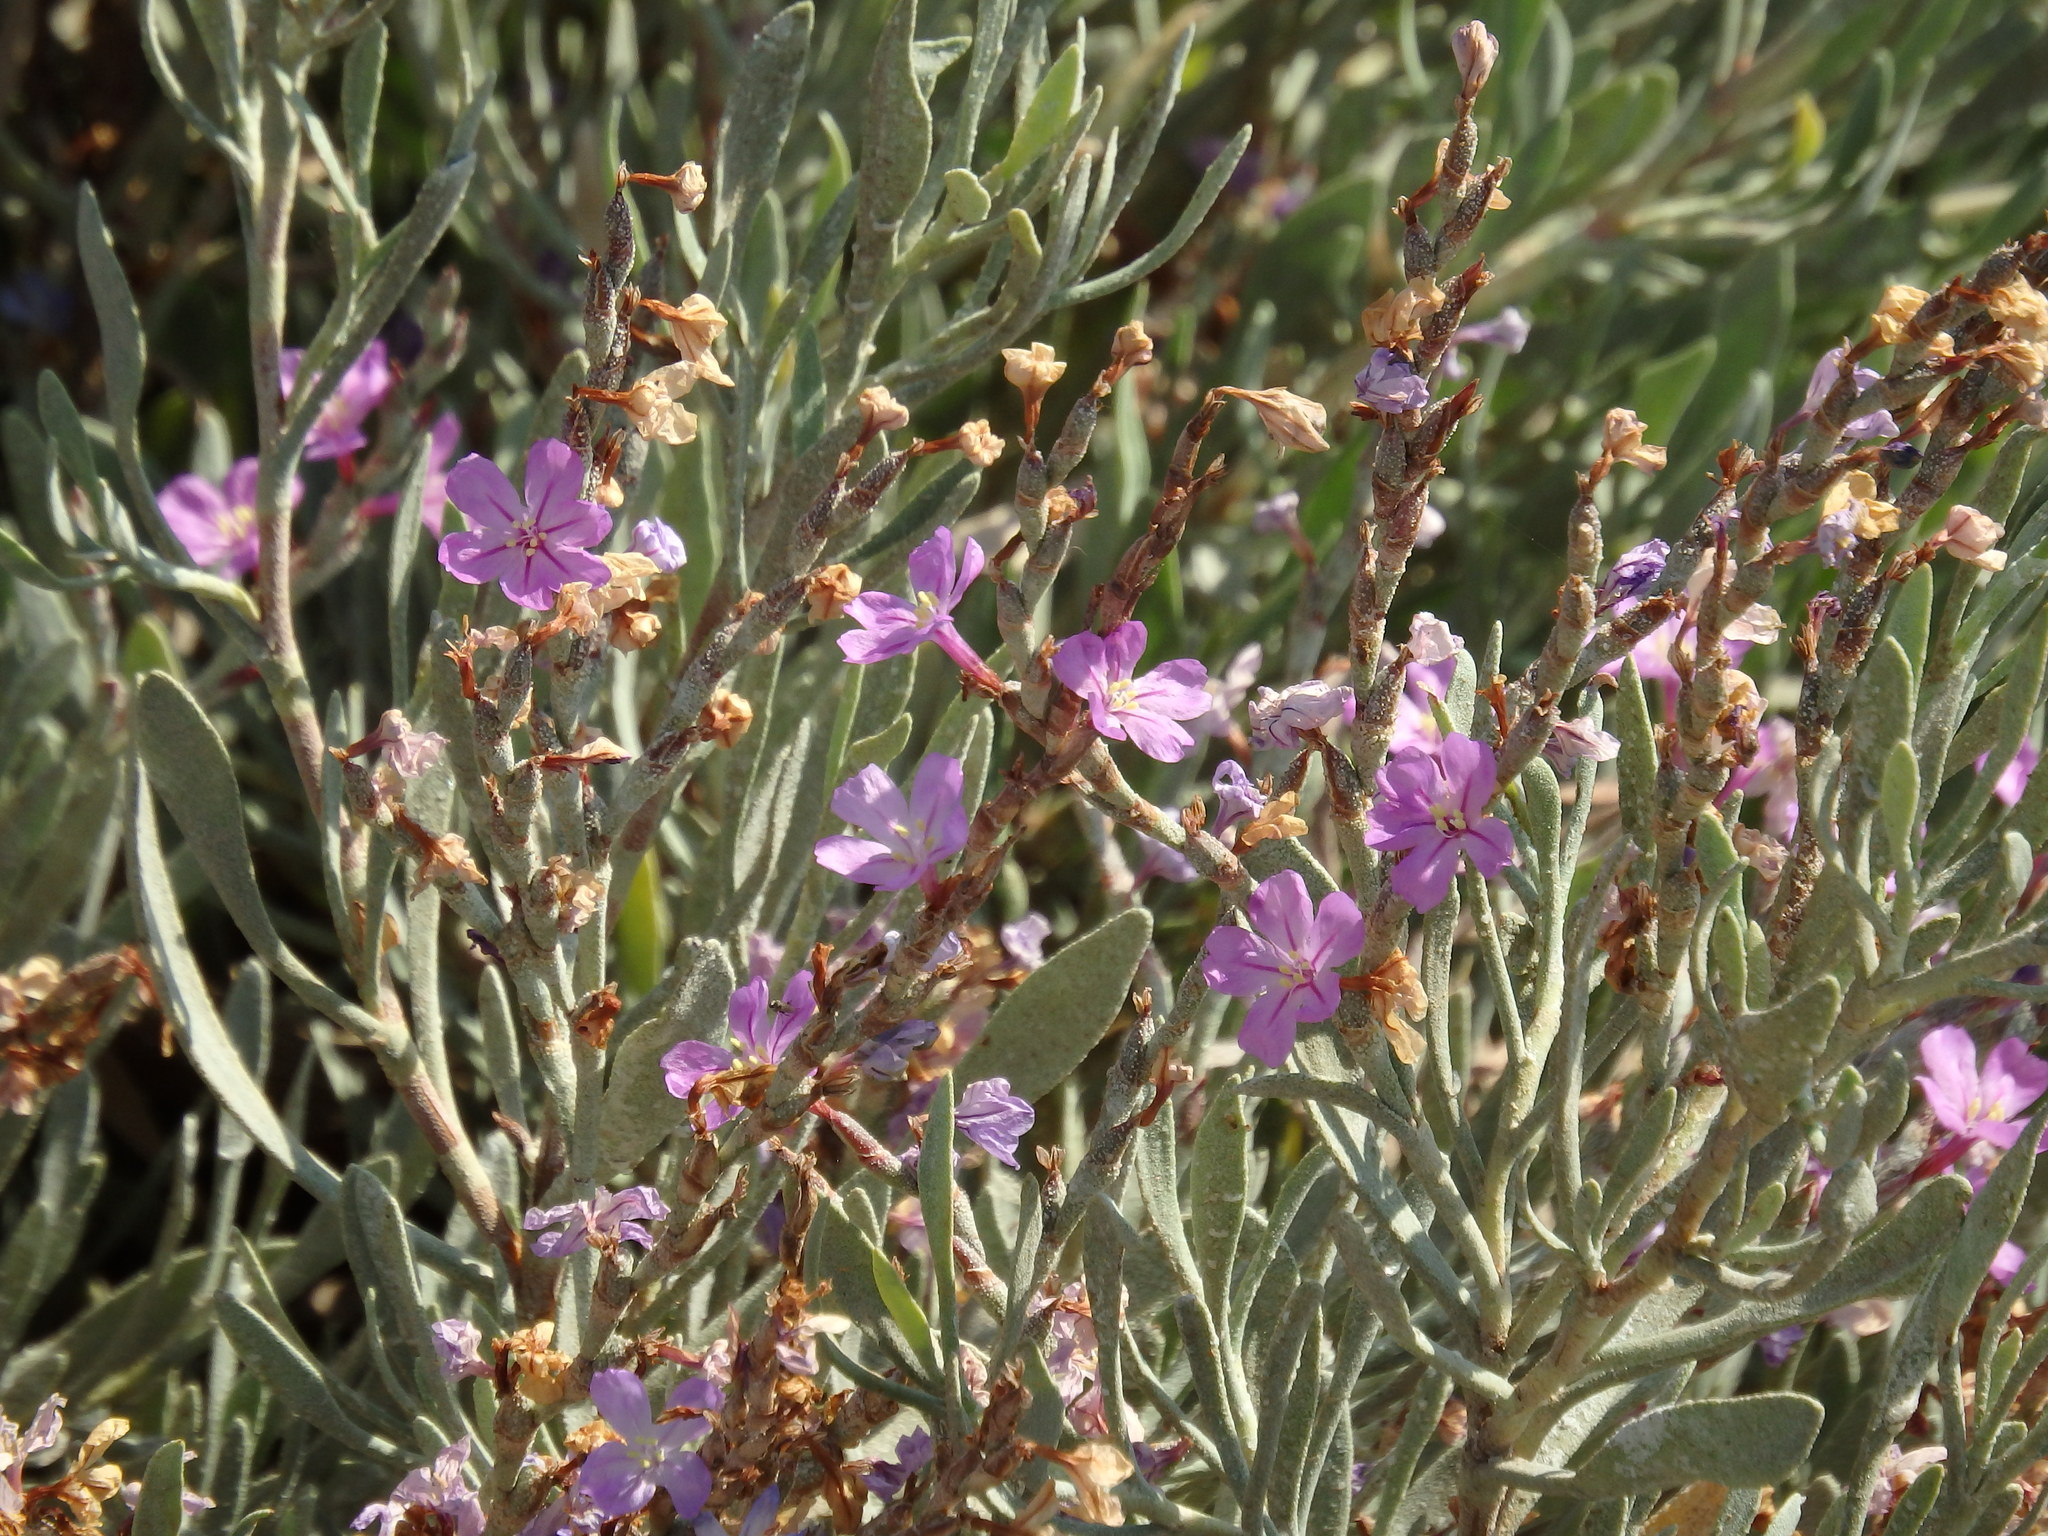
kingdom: Plantae
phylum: Tracheophyta
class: Magnoliopsida
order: Caryophyllales
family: Plumbaginaceae
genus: Limoniastrum
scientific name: Limoniastrum monopetalum
